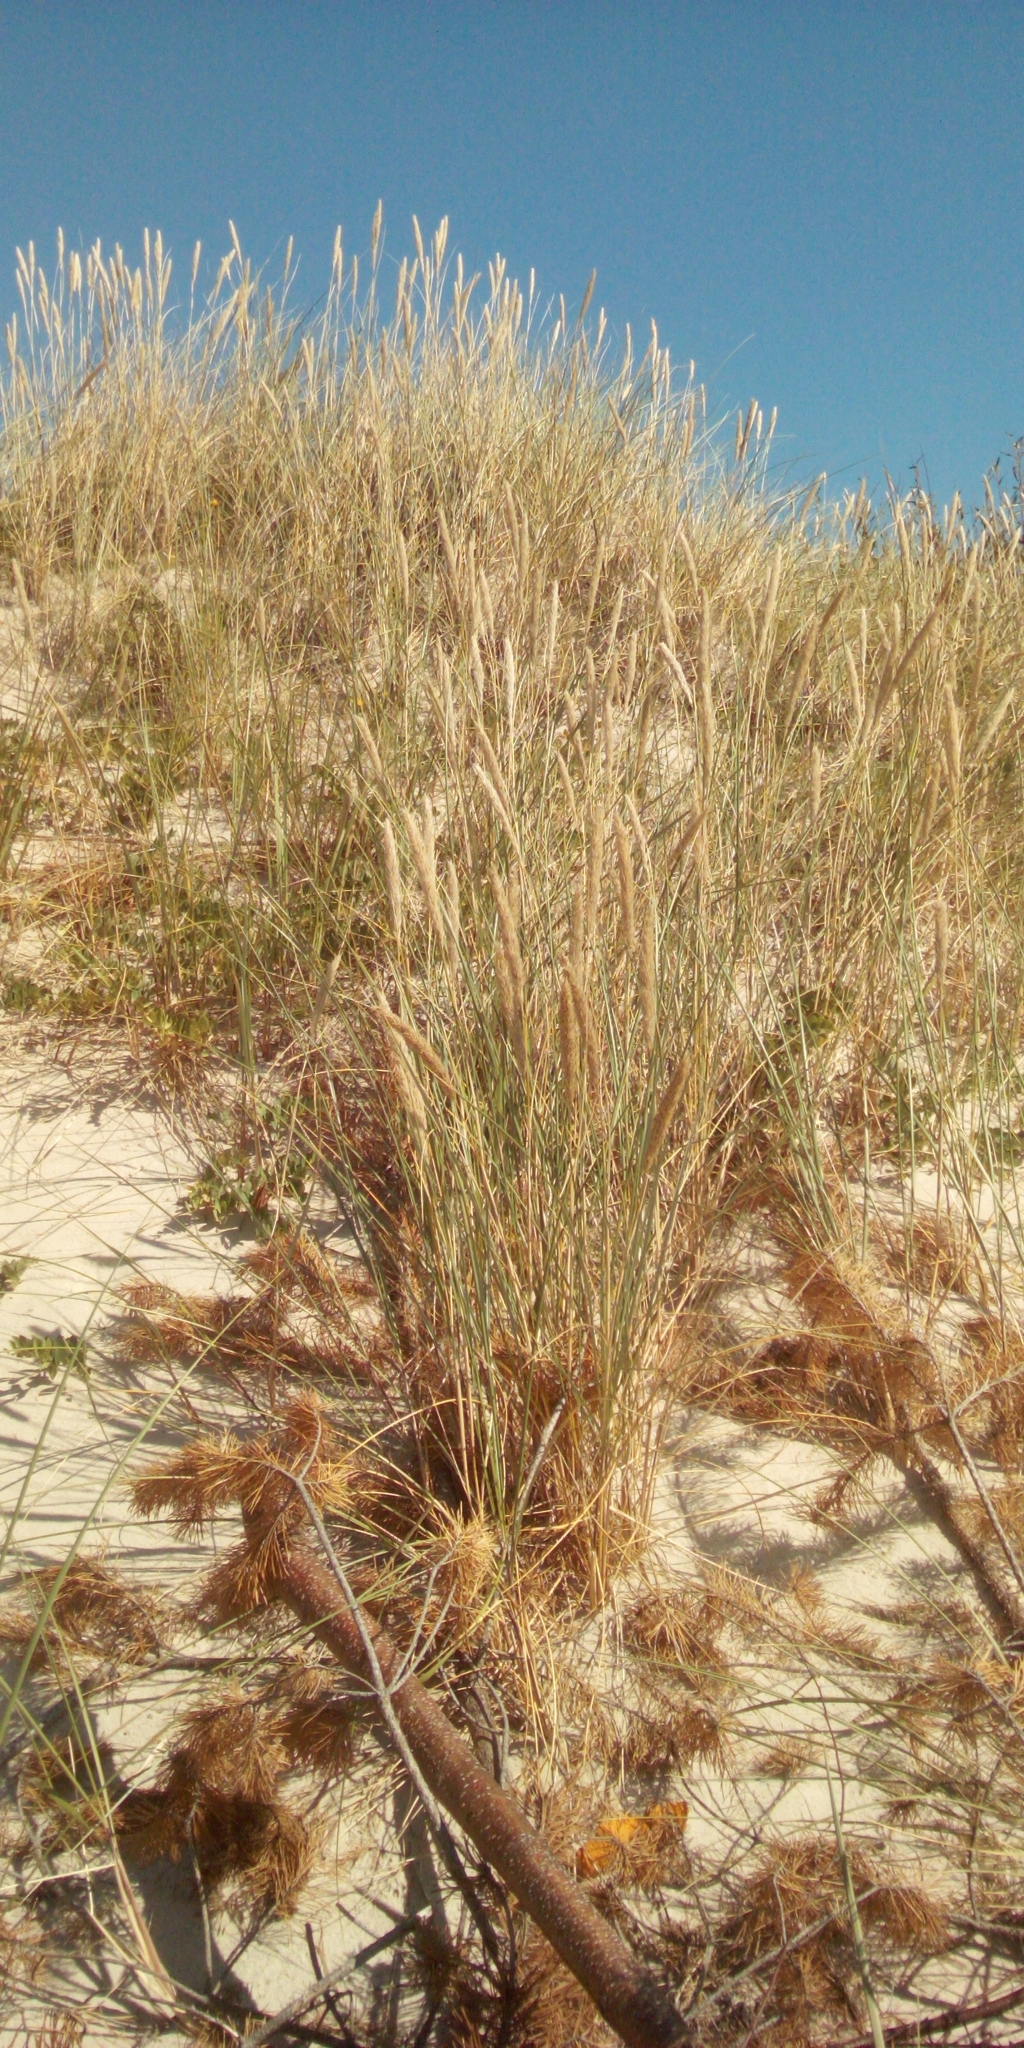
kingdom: Plantae
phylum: Tracheophyta
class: Liliopsida
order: Poales
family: Poaceae
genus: Calamagrostis
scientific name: Calamagrostis arenaria
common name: European beachgrass
